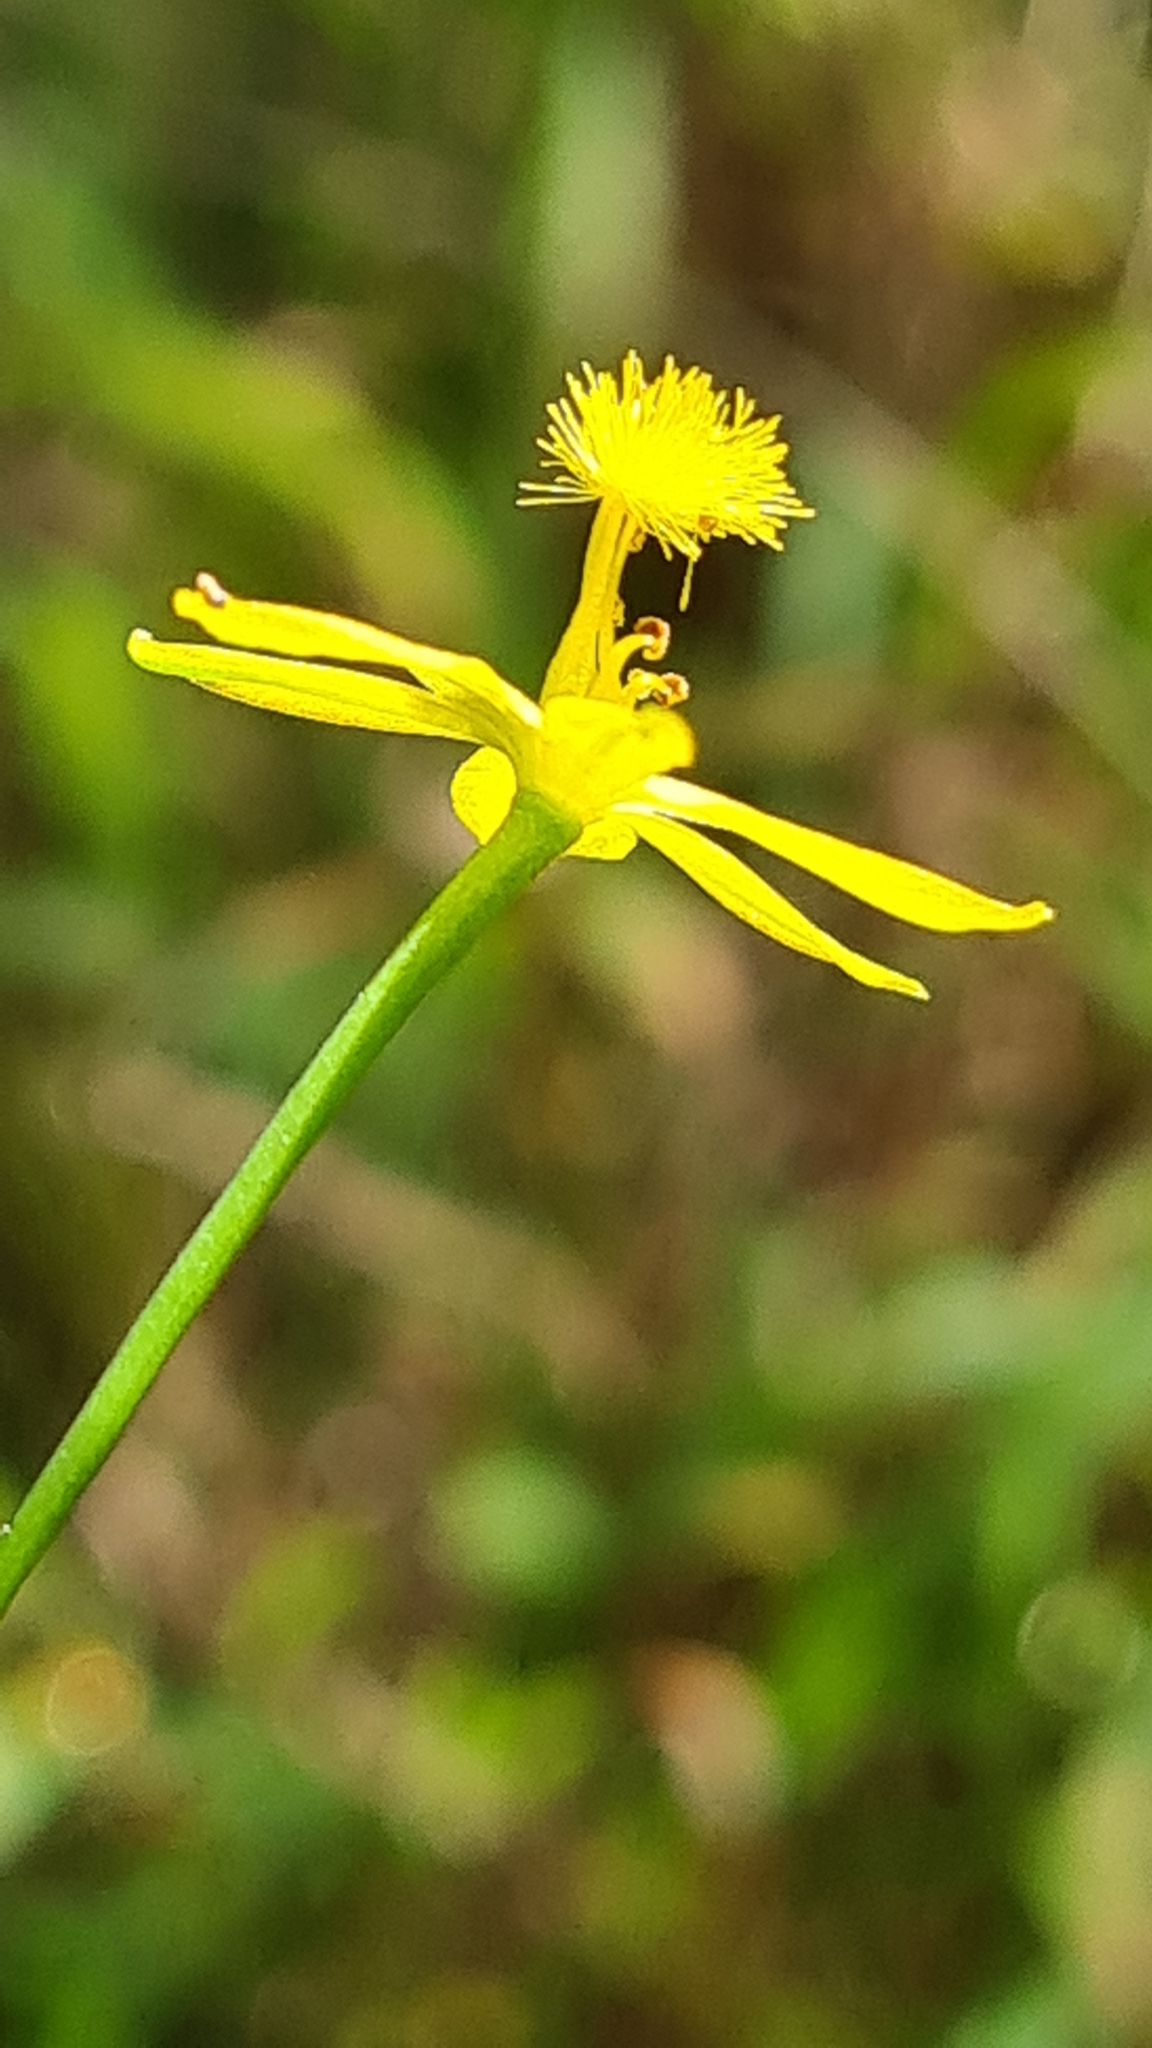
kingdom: Plantae
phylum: Tracheophyta
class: Liliopsida
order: Asparagales
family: Asphodelaceae
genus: Bulbine
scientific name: Bulbine semibarbata
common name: Leek lily
